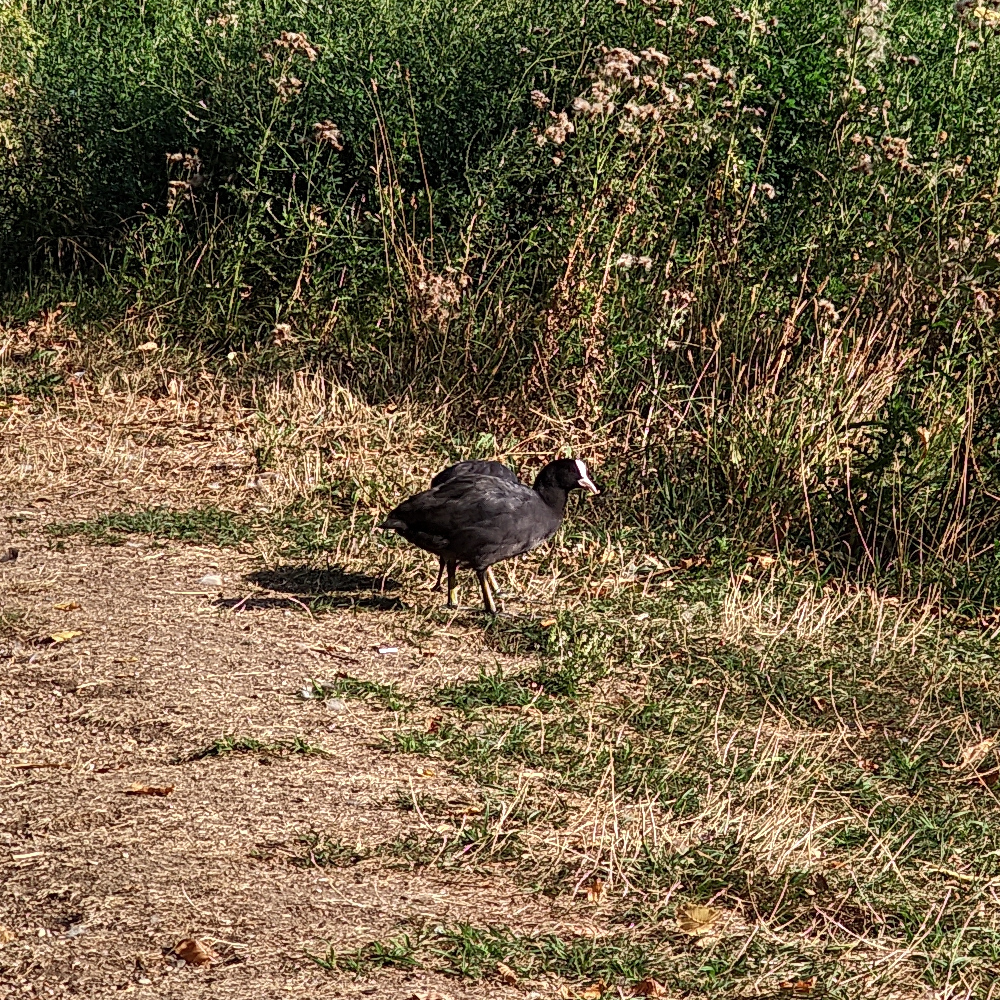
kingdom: Animalia
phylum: Chordata
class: Aves
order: Gruiformes
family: Rallidae
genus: Fulica
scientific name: Fulica atra
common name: Eurasian coot
